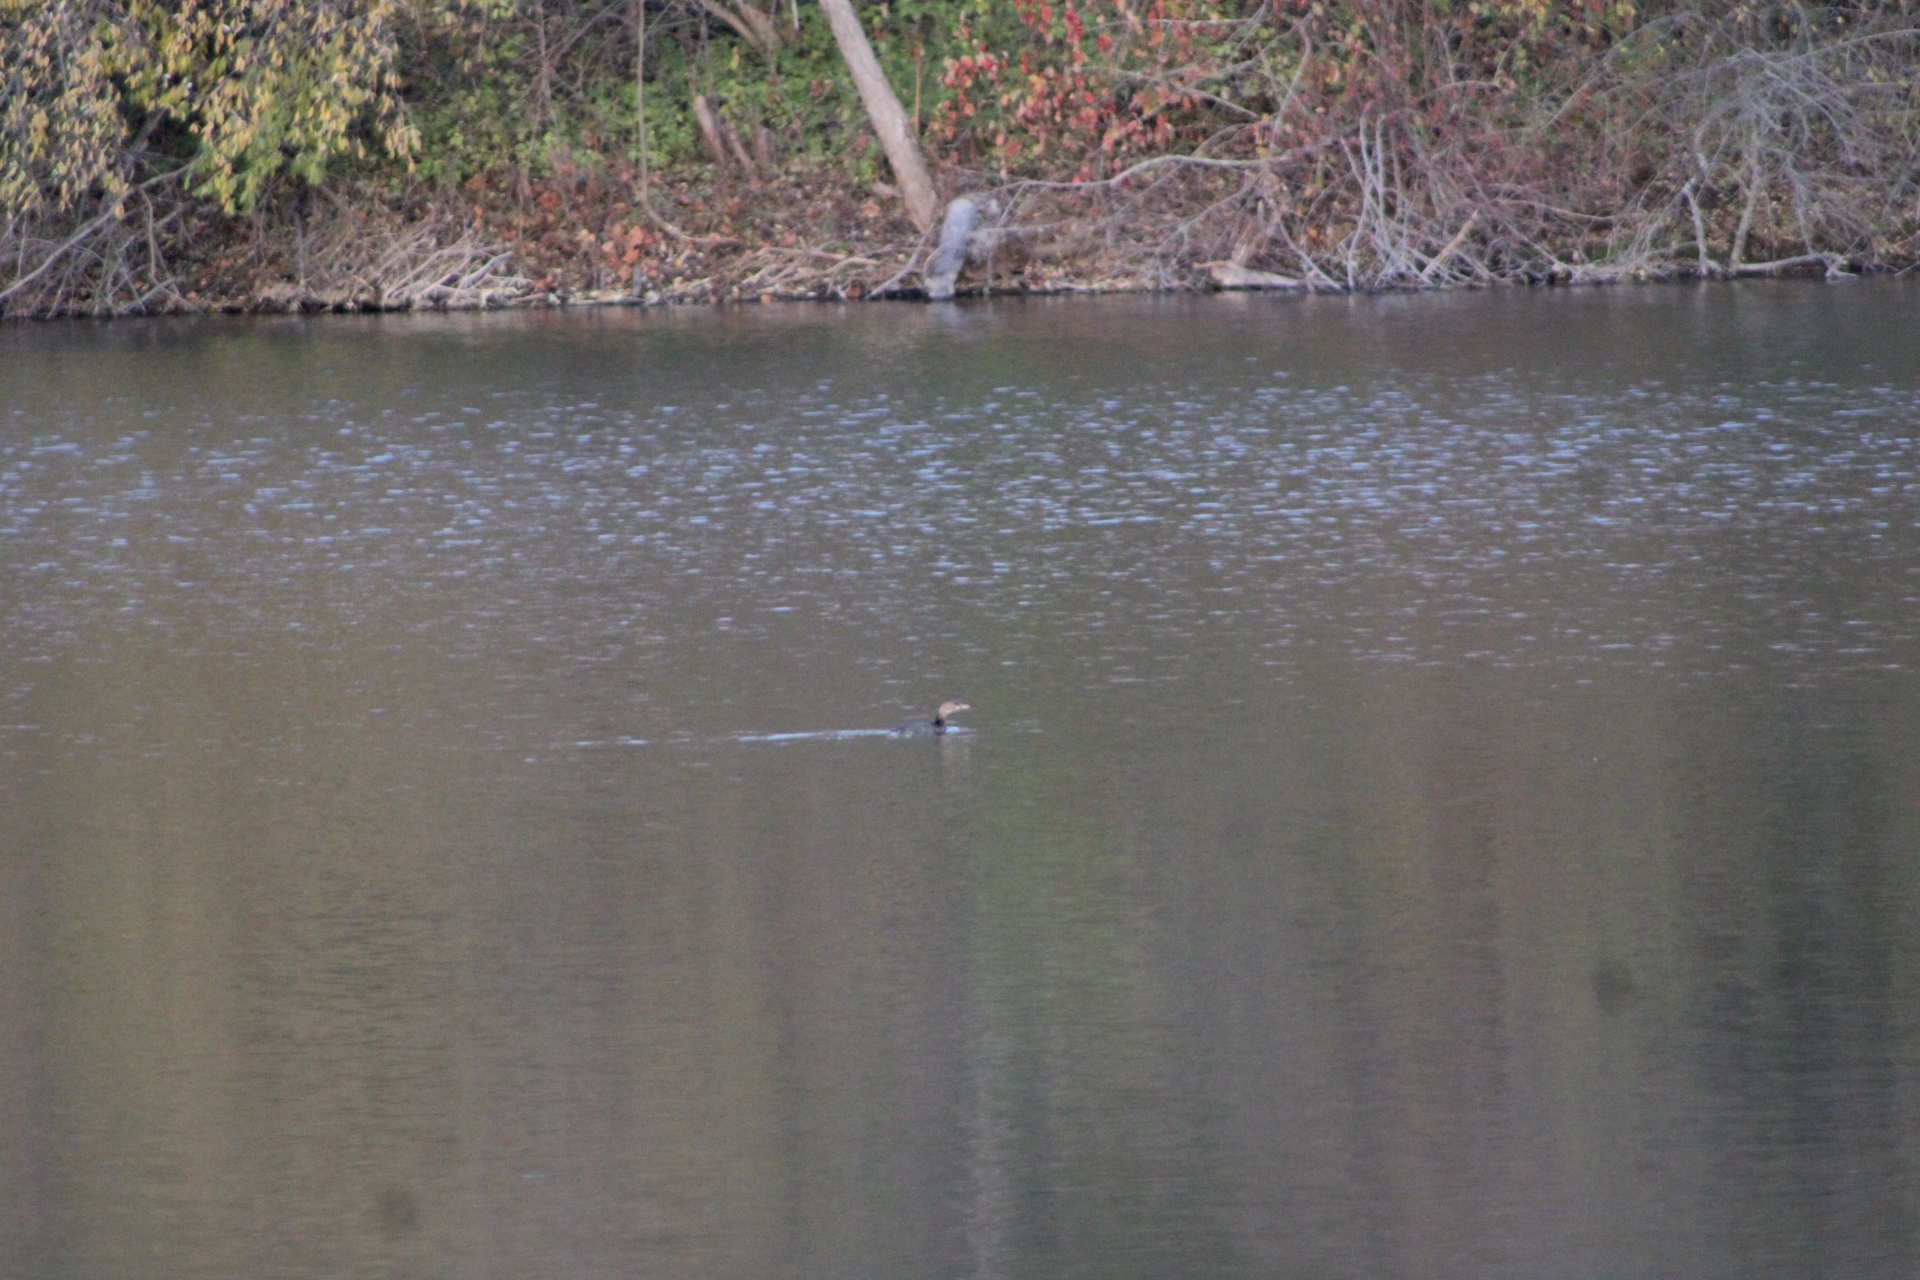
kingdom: Animalia
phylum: Chordata
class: Aves
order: Podicipediformes
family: Podicipedidae
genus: Podilymbus
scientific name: Podilymbus podiceps
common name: Pied-billed grebe
